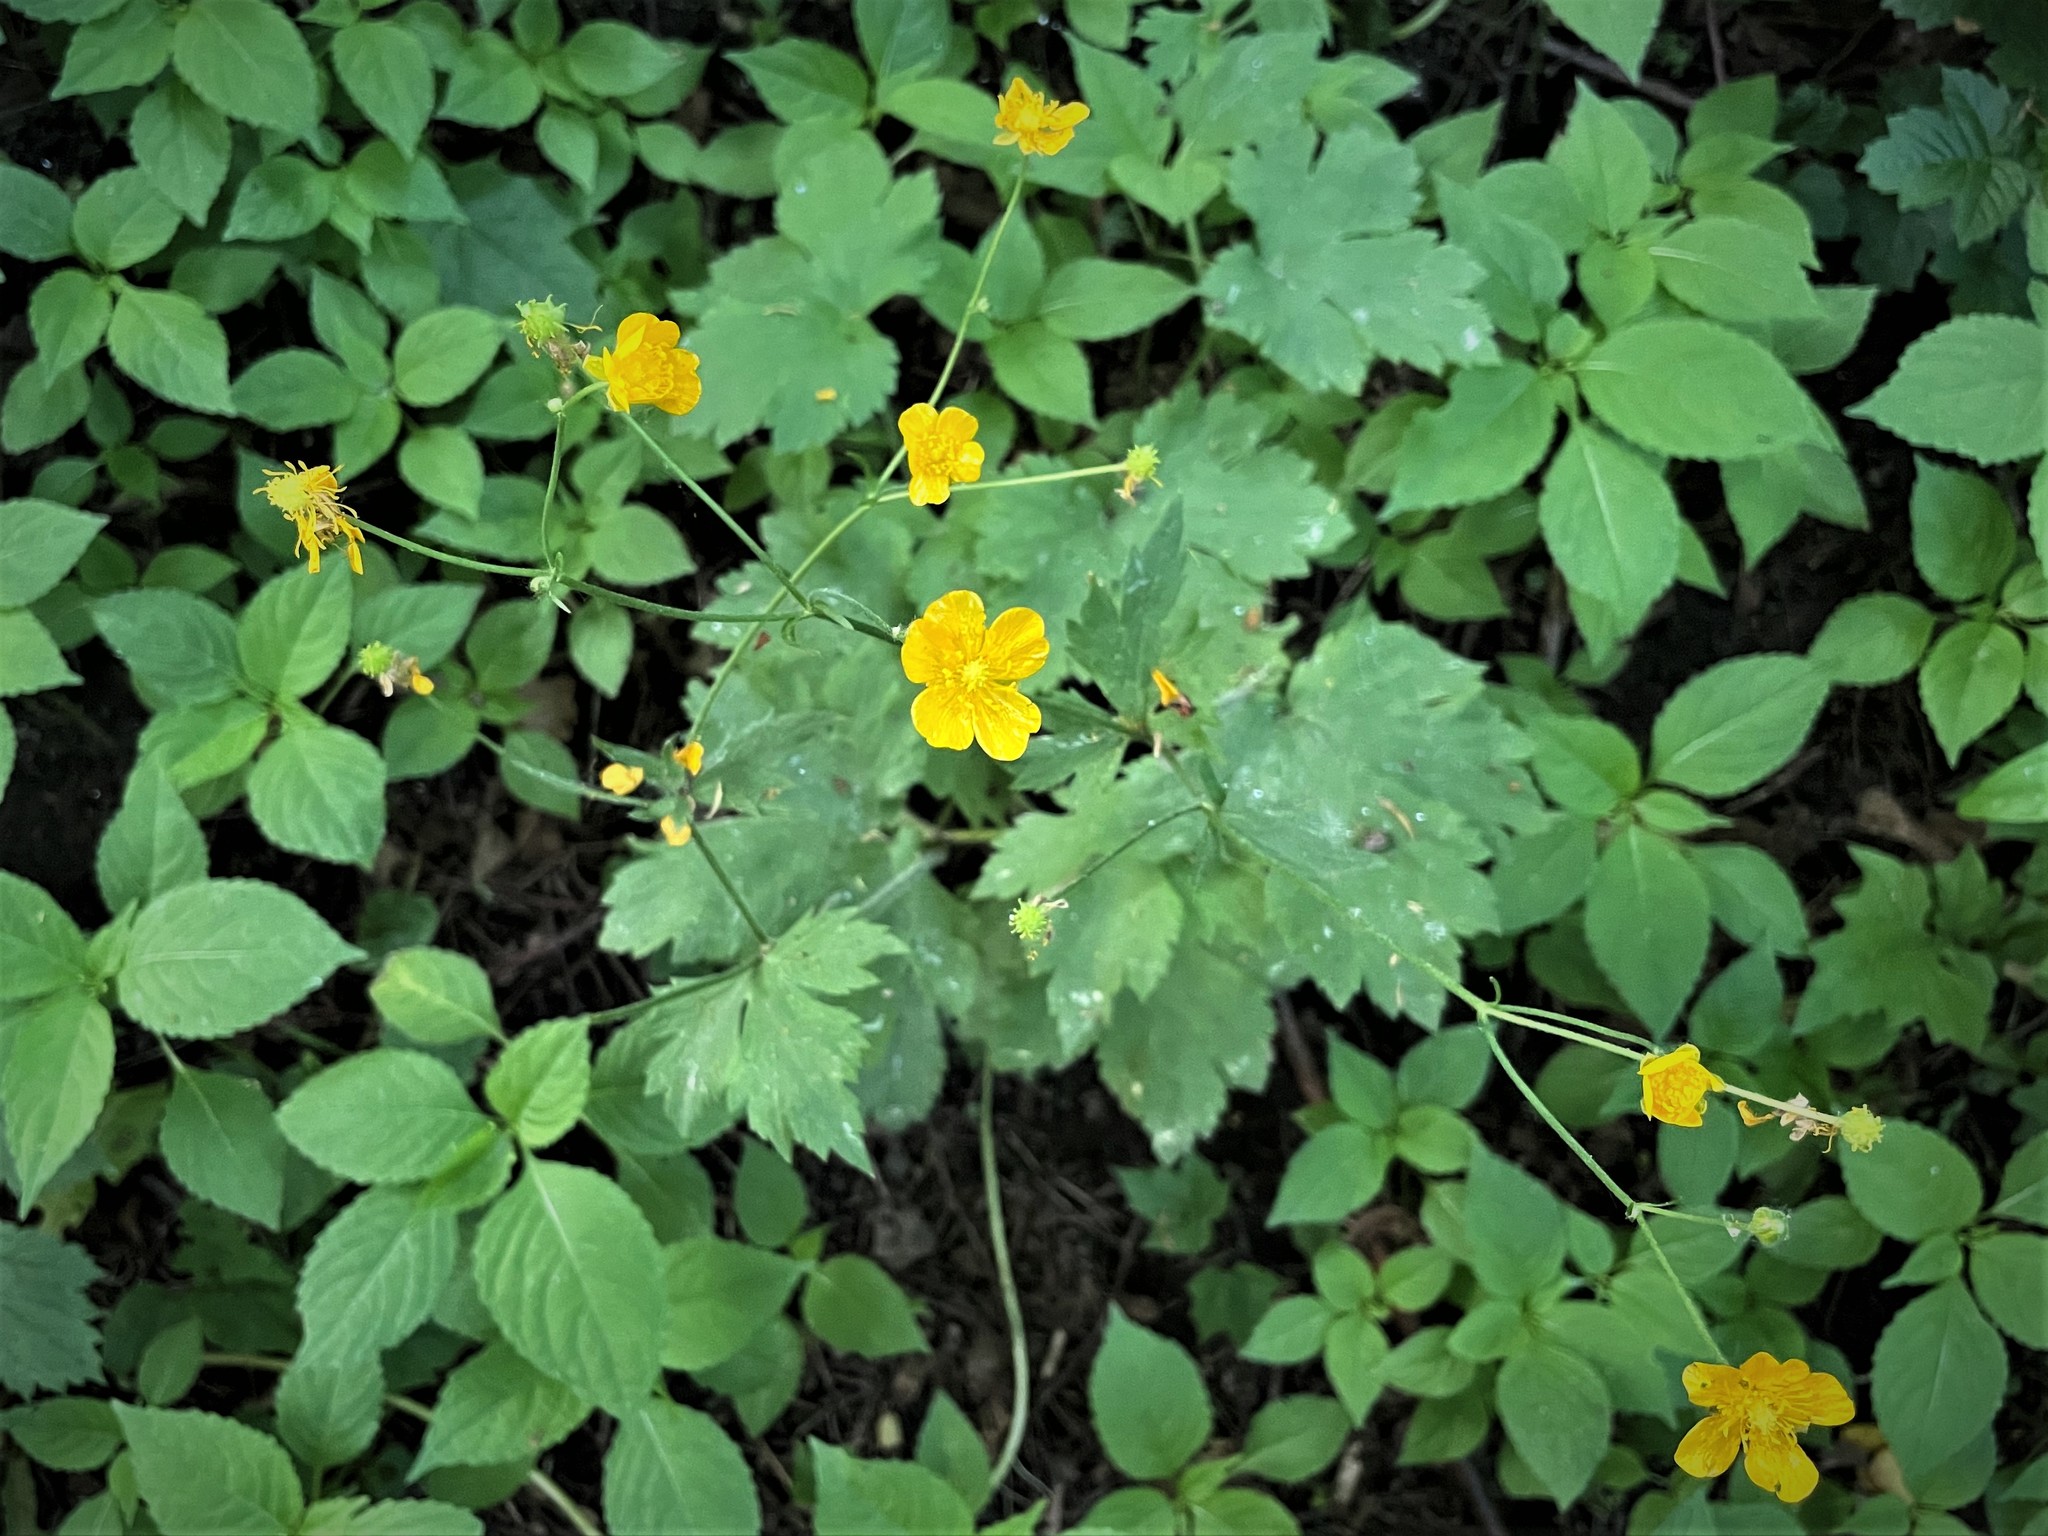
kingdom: Plantae
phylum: Tracheophyta
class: Magnoliopsida
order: Ranunculales
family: Ranunculaceae
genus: Ranunculus
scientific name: Ranunculus lanuginosus
